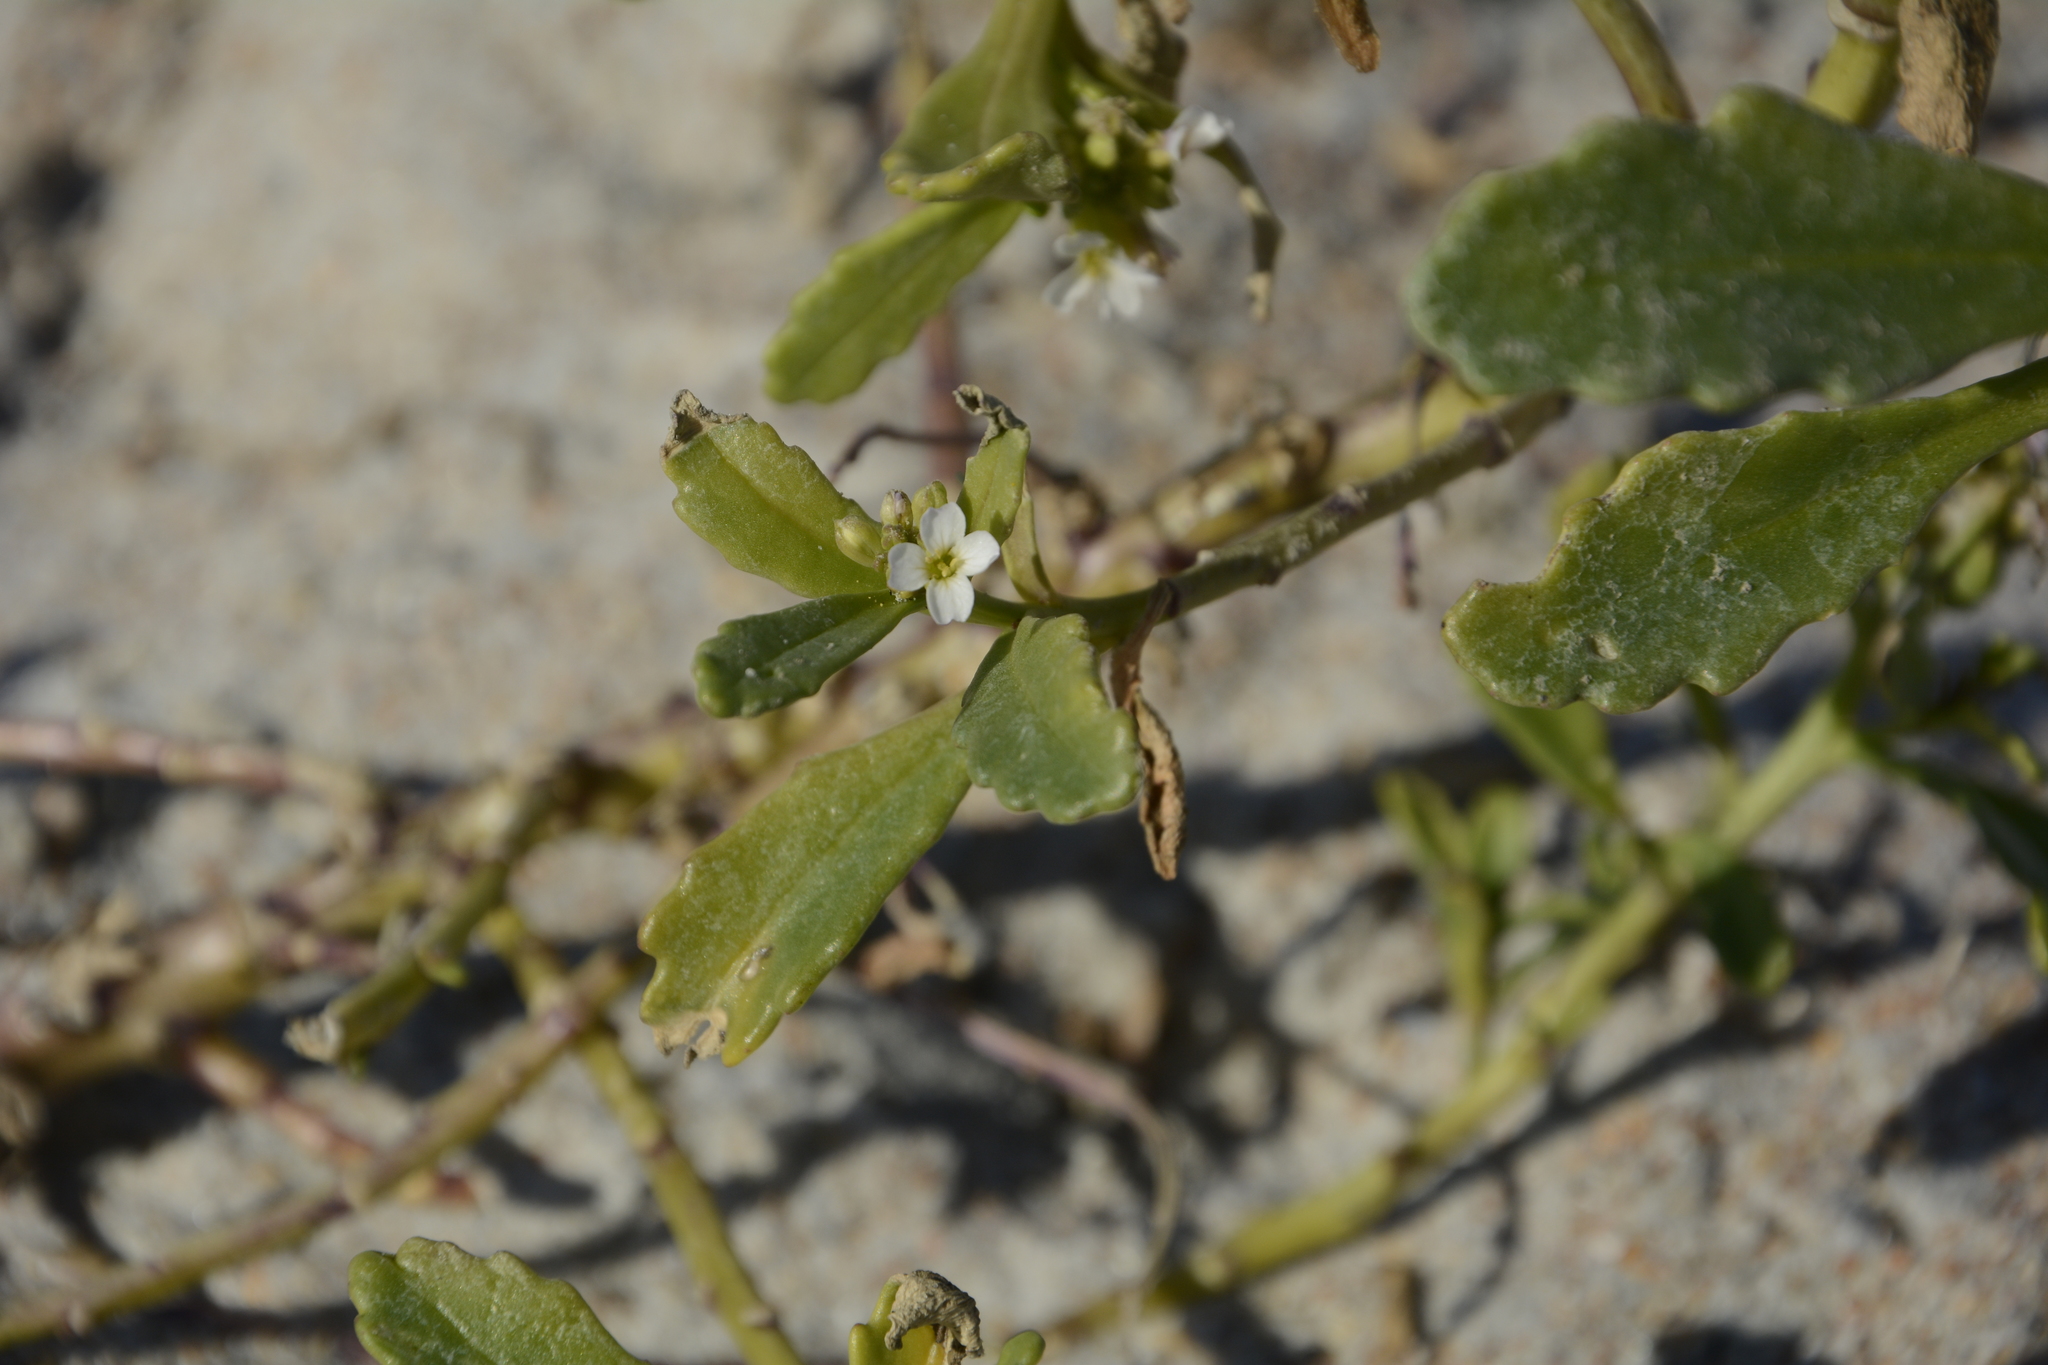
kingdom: Plantae
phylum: Tracheophyta
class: Magnoliopsida
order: Brassicales
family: Brassicaceae
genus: Cakile
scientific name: Cakile edentula
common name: American sea rocket
